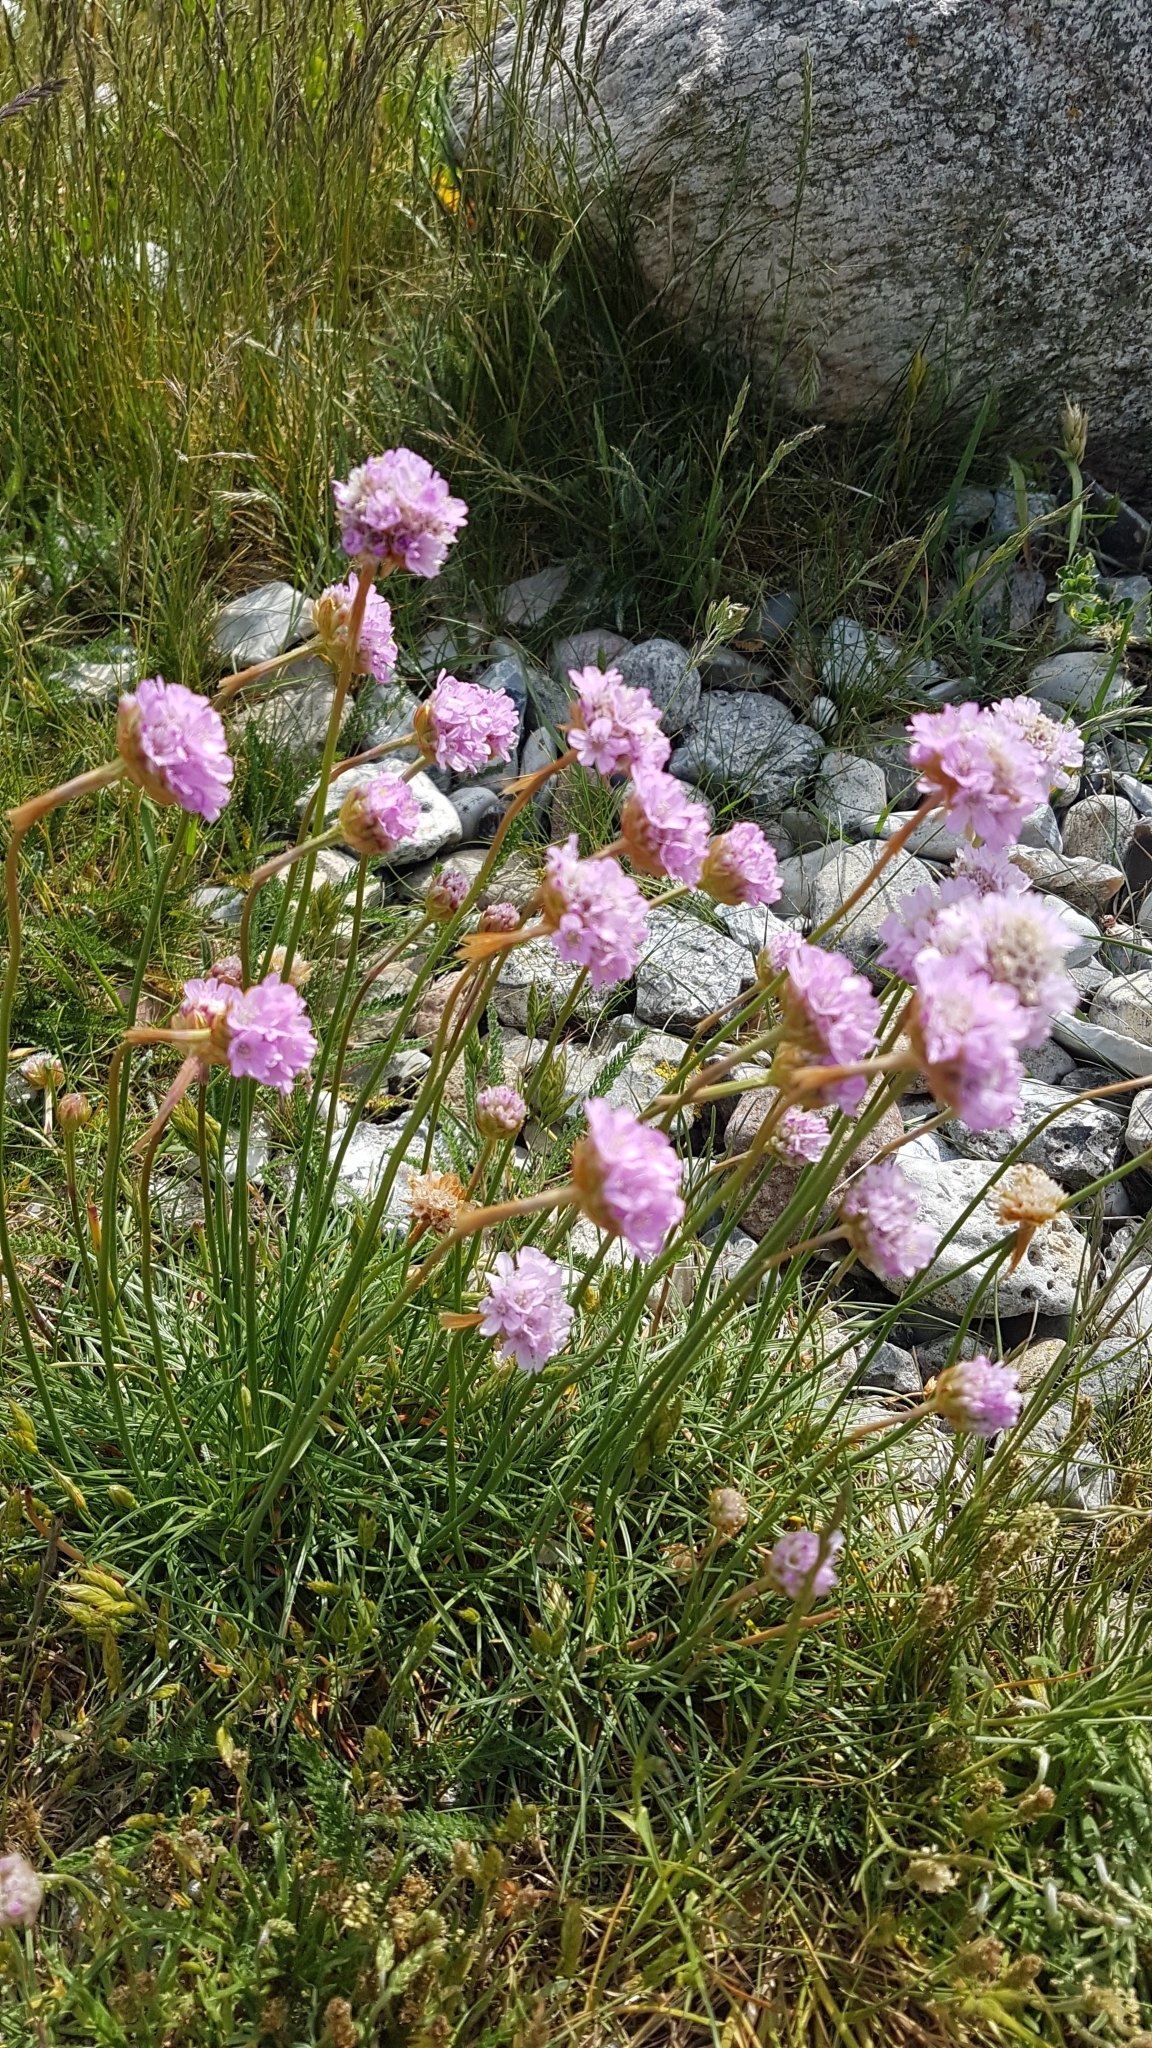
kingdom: Plantae
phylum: Tracheophyta
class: Magnoliopsida
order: Caryophyllales
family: Plumbaginaceae
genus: Armeria
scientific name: Armeria maritima
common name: Thrift
